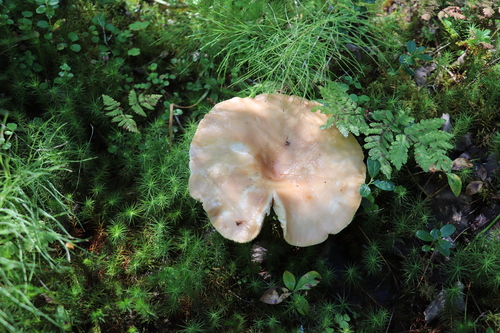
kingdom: Fungi
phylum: Basidiomycota
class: Agaricomycetes
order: Russulales
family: Russulaceae
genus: Lactarius
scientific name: Lactarius vietus
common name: Grey milk-cap
